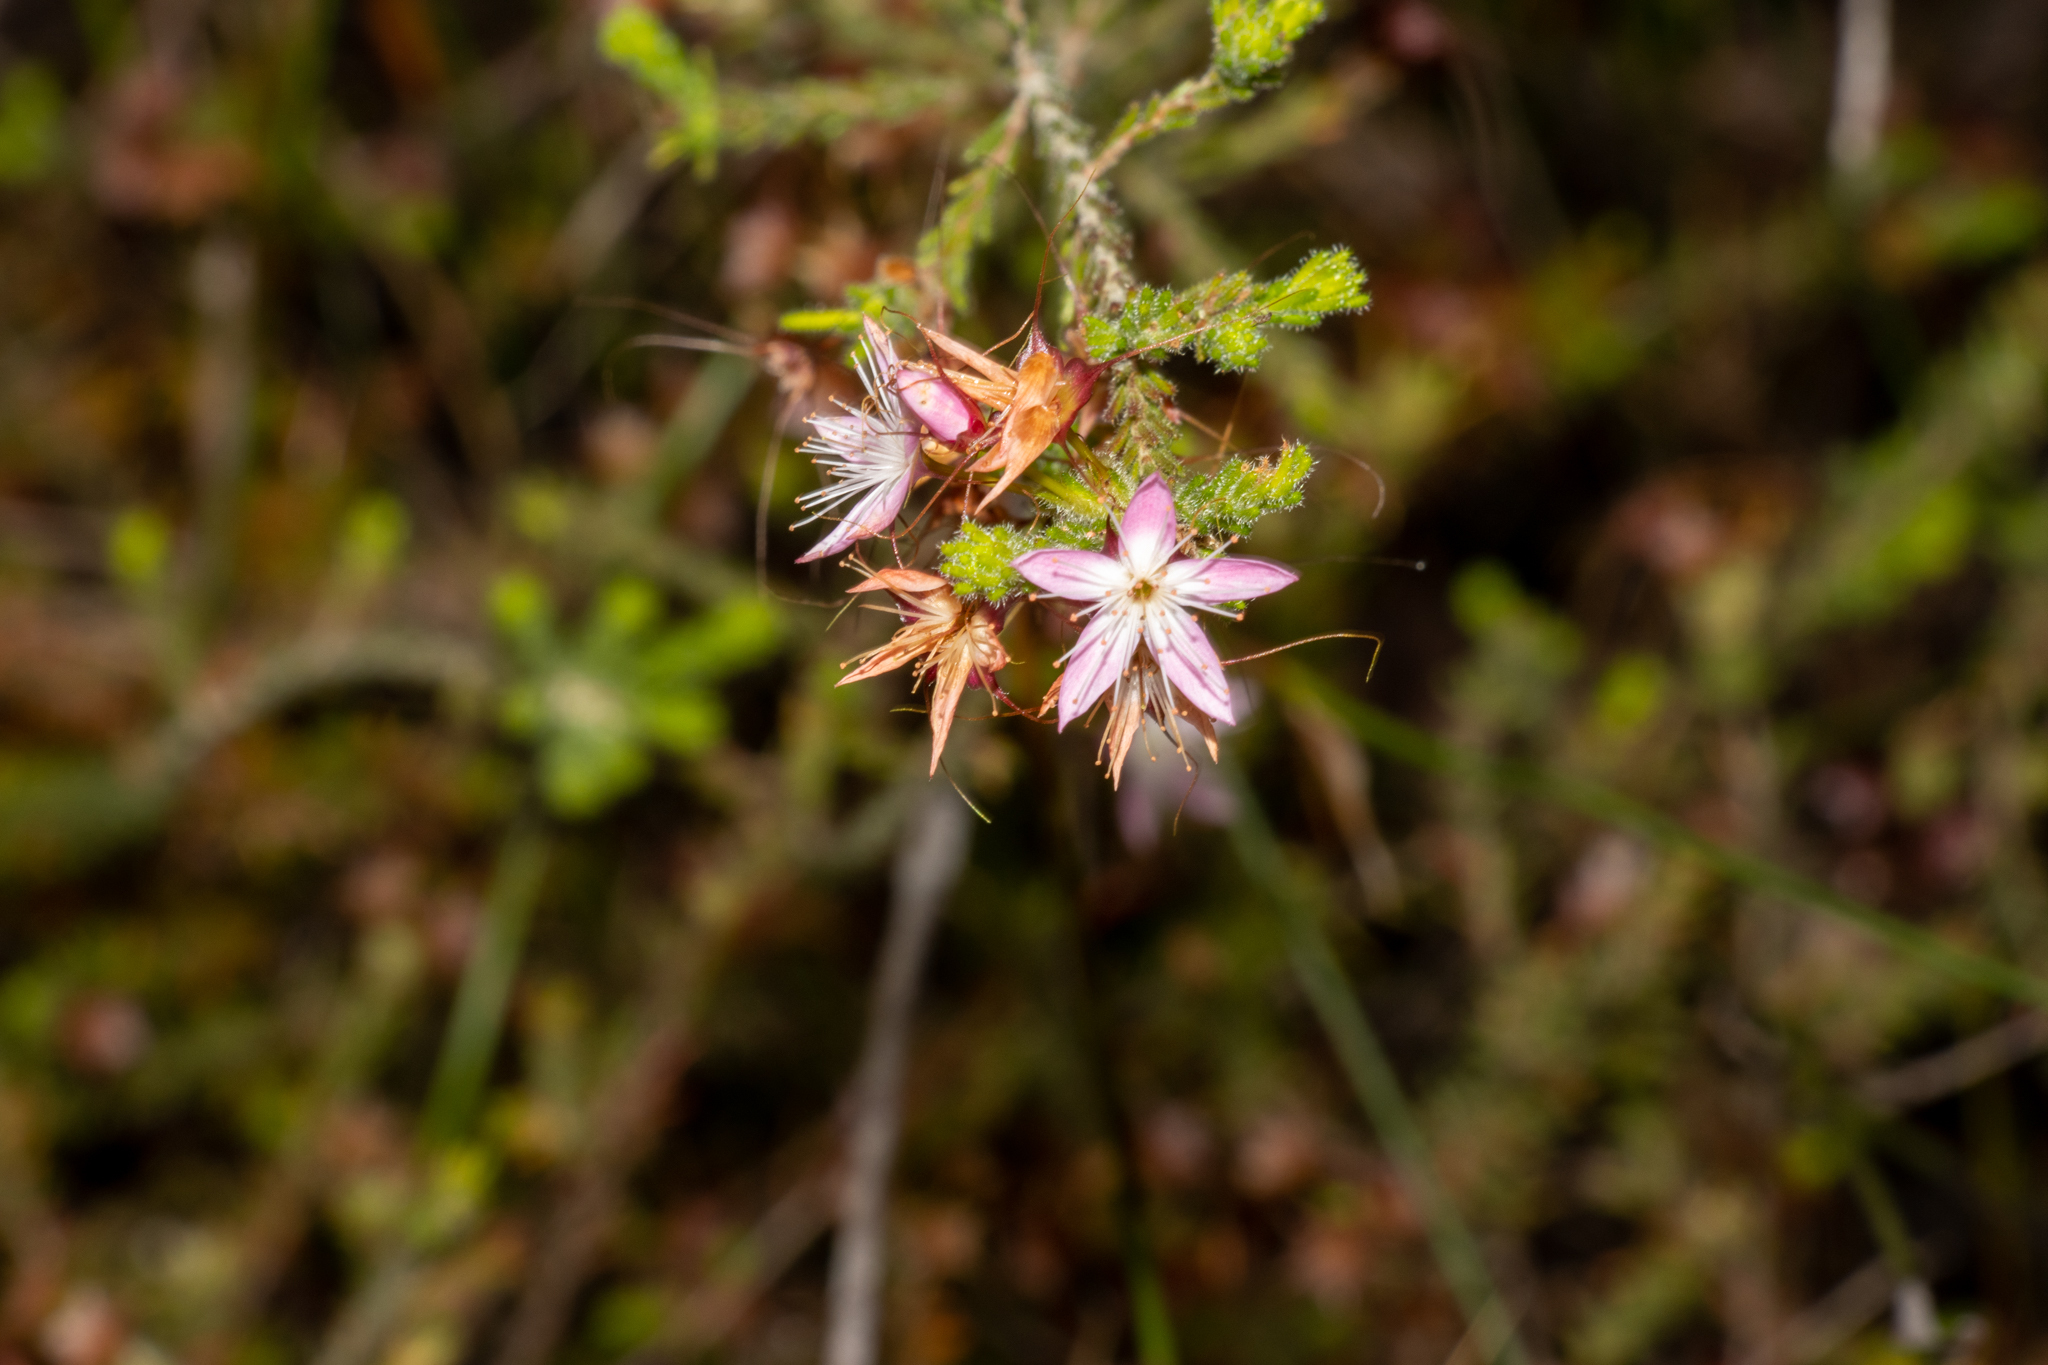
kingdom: Plantae
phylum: Tracheophyta
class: Magnoliopsida
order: Myrtales
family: Myrtaceae
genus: Calytrix
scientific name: Calytrix tetragona
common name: Common fringe myrtle
